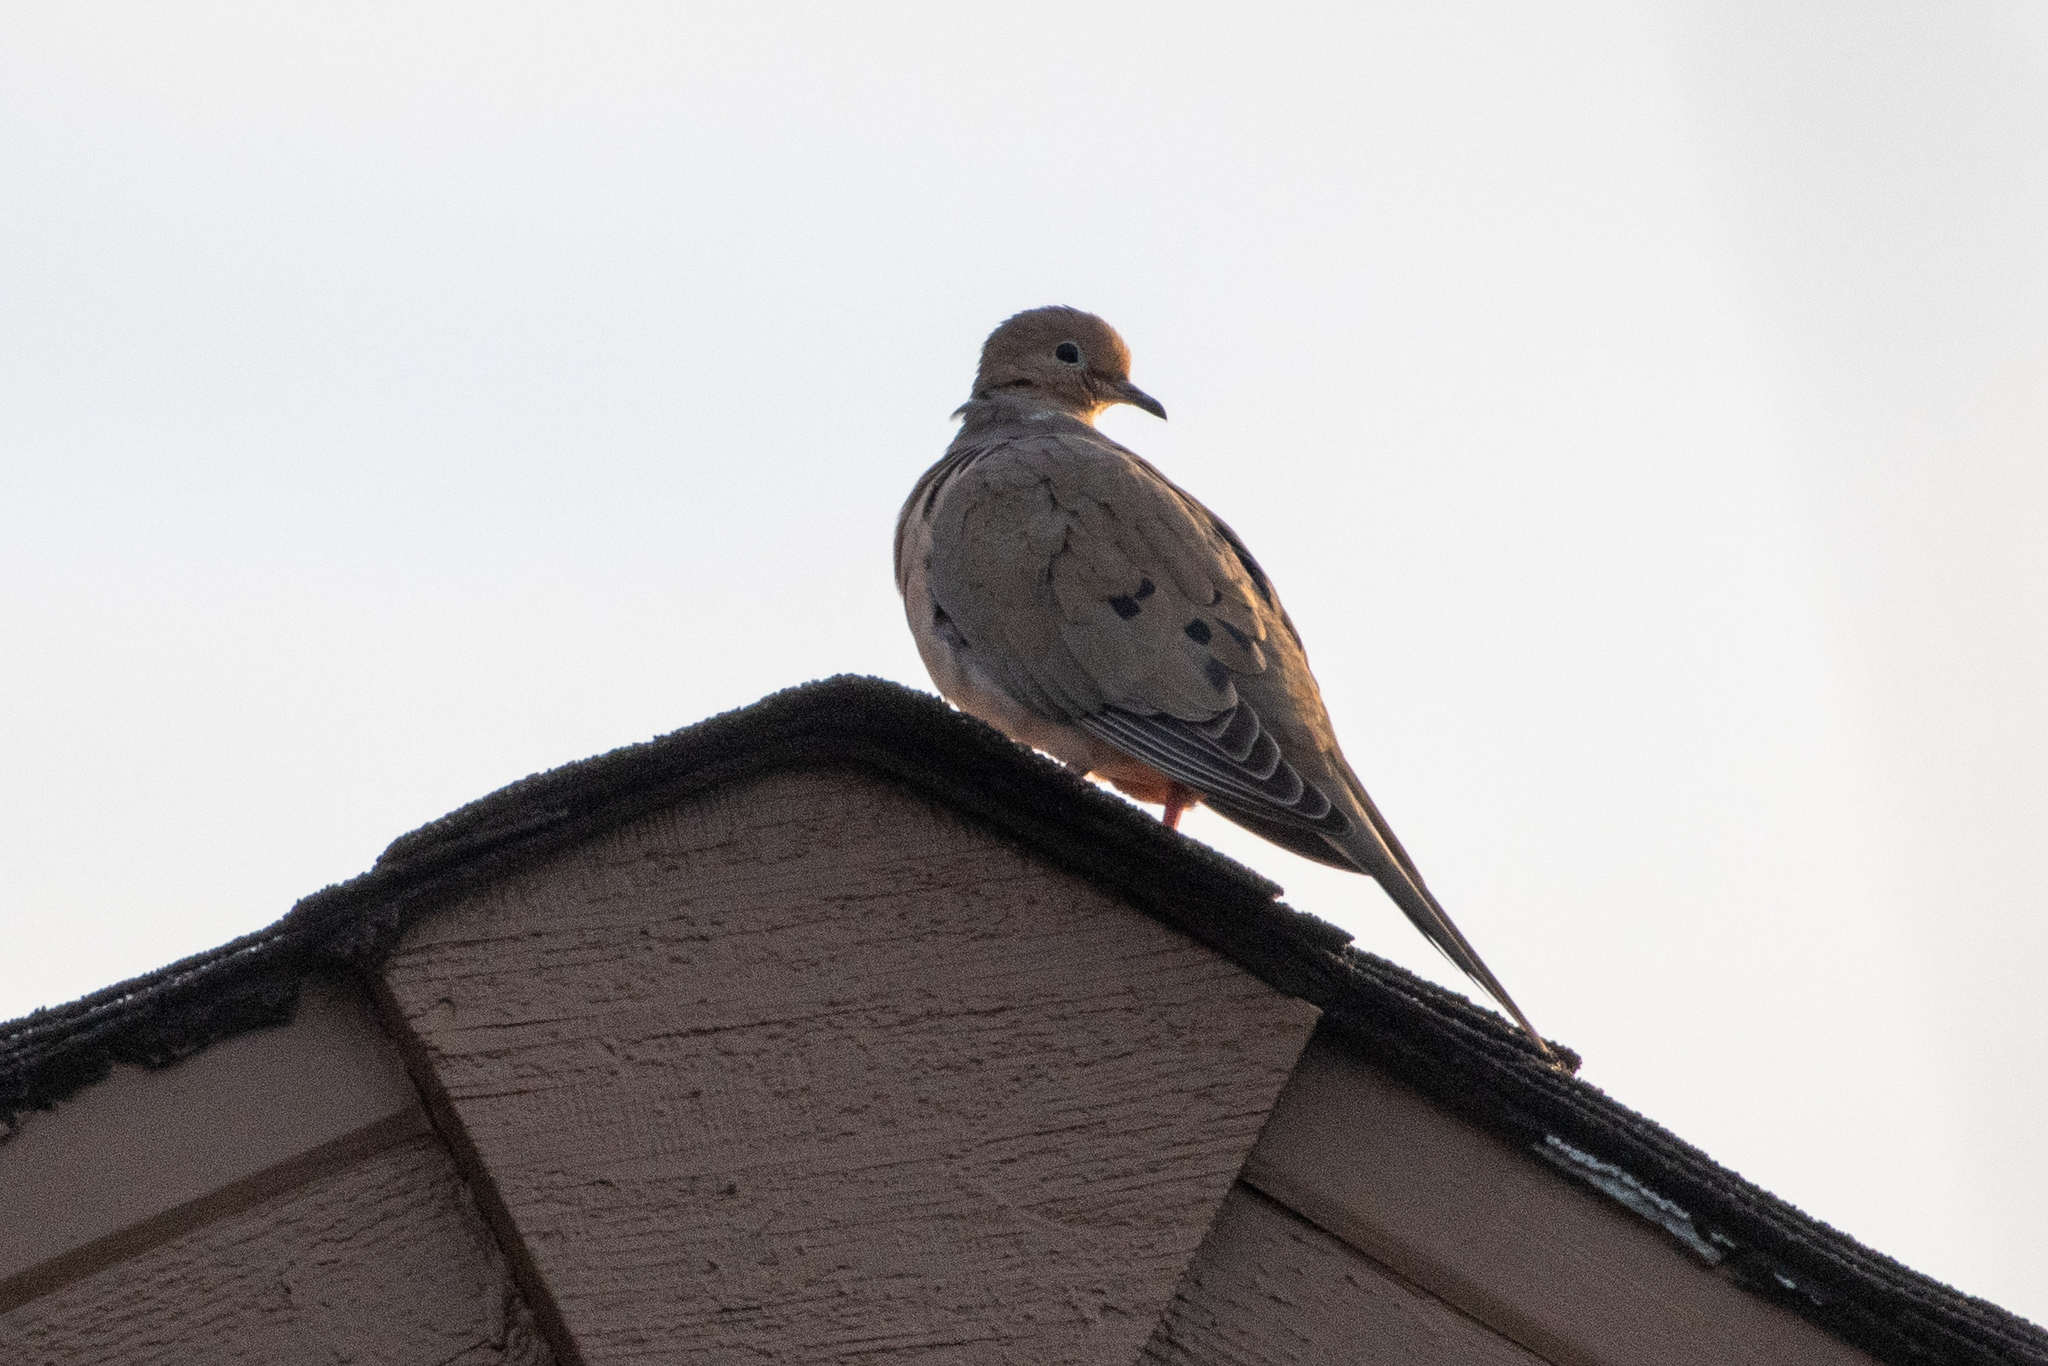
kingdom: Animalia
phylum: Chordata
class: Aves
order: Columbiformes
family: Columbidae
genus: Zenaida
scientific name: Zenaida macroura
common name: Mourning dove
